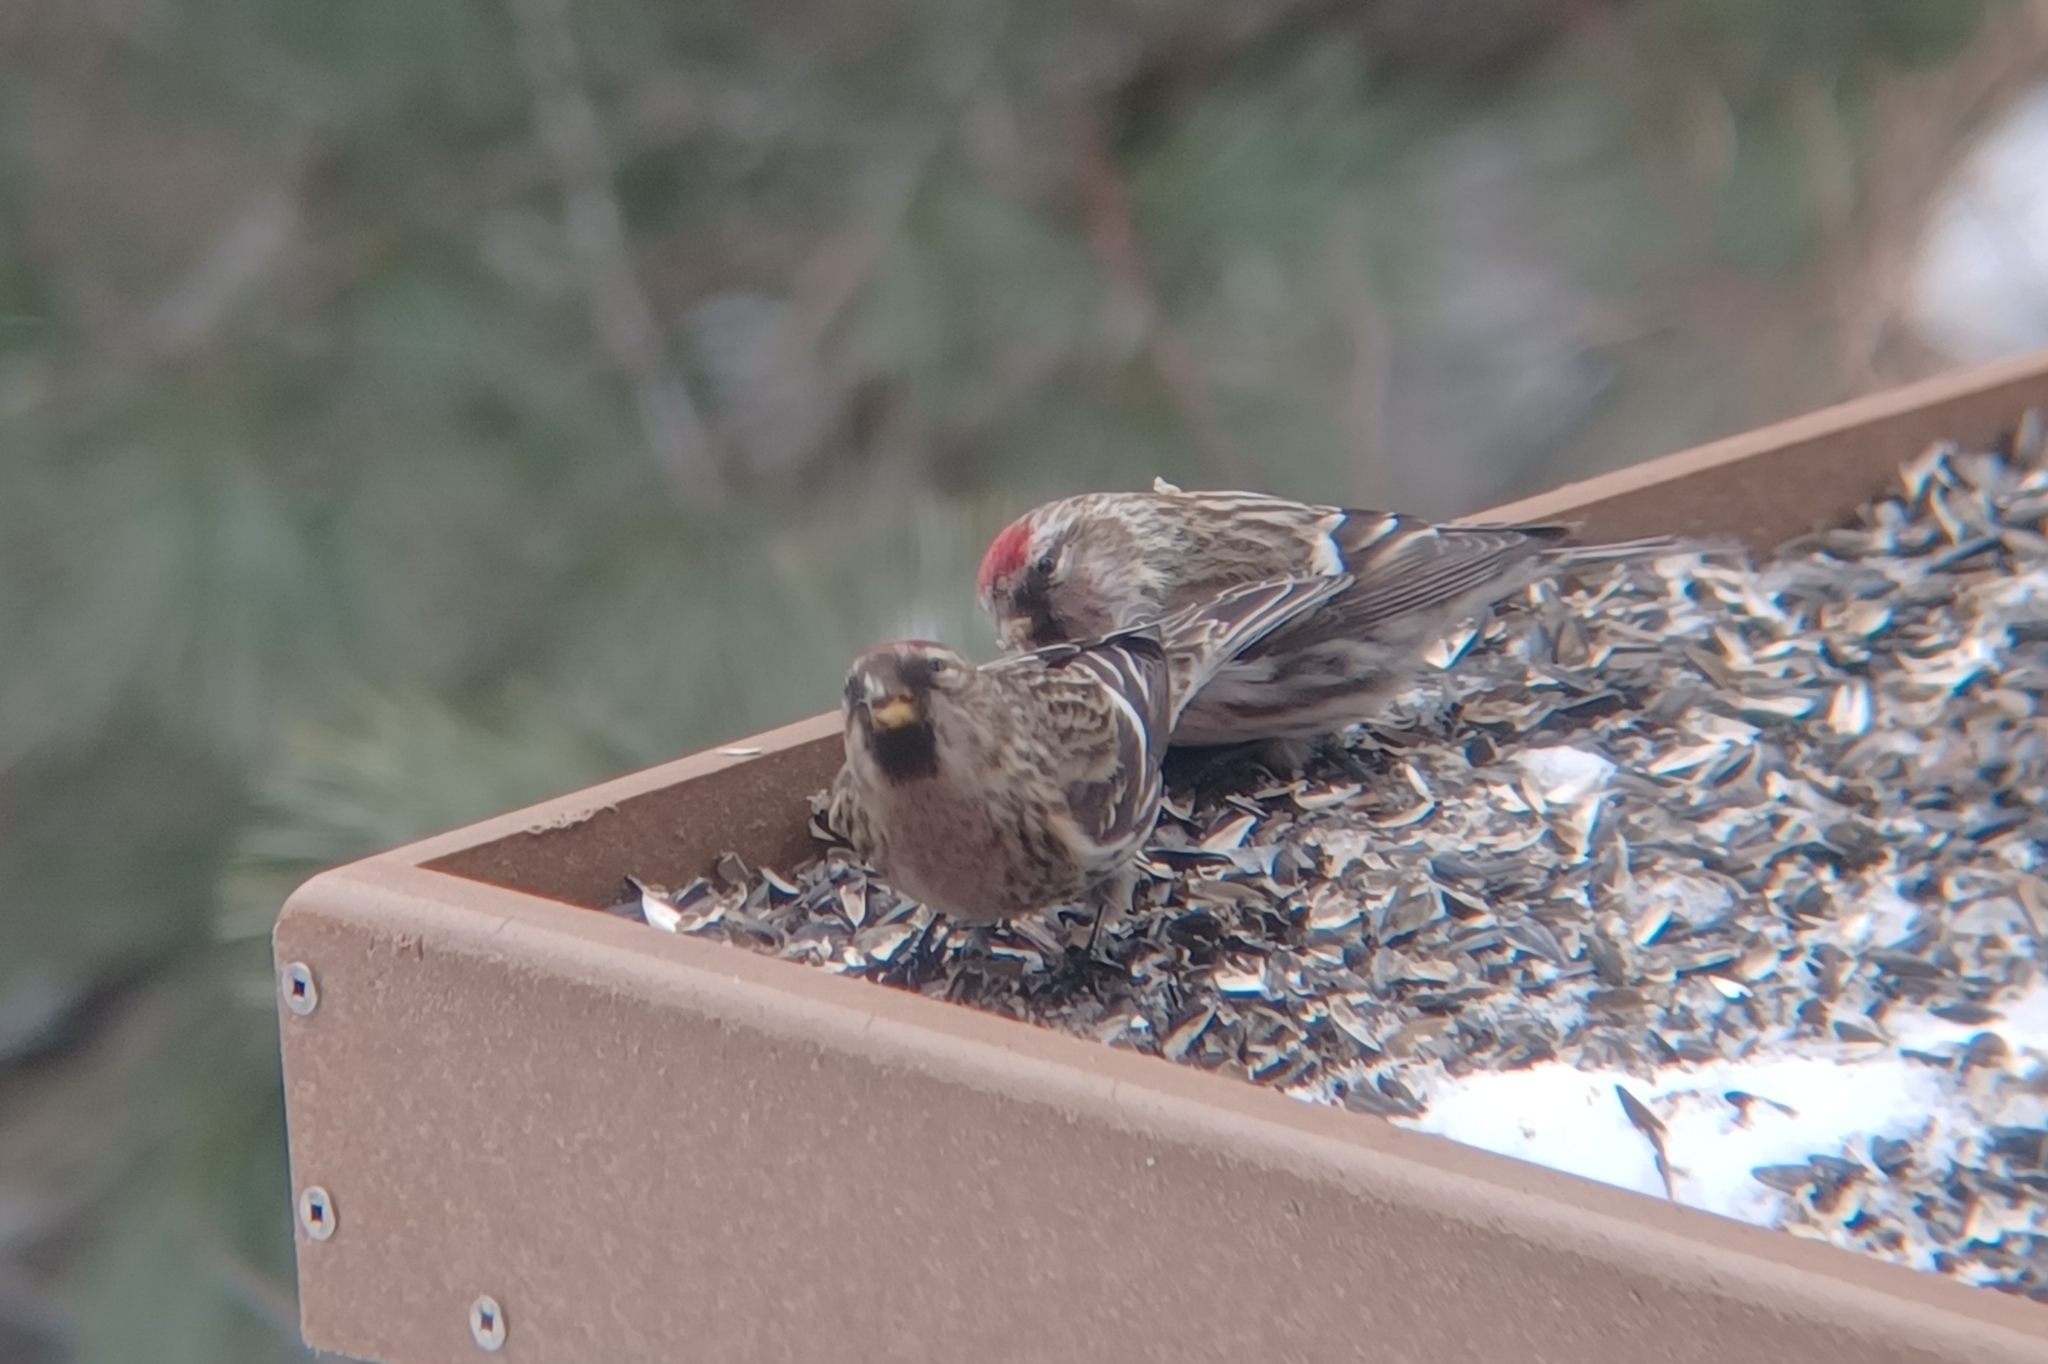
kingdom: Animalia
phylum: Chordata
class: Aves
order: Passeriformes
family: Fringillidae
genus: Acanthis
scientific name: Acanthis flammea
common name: Common redpoll
